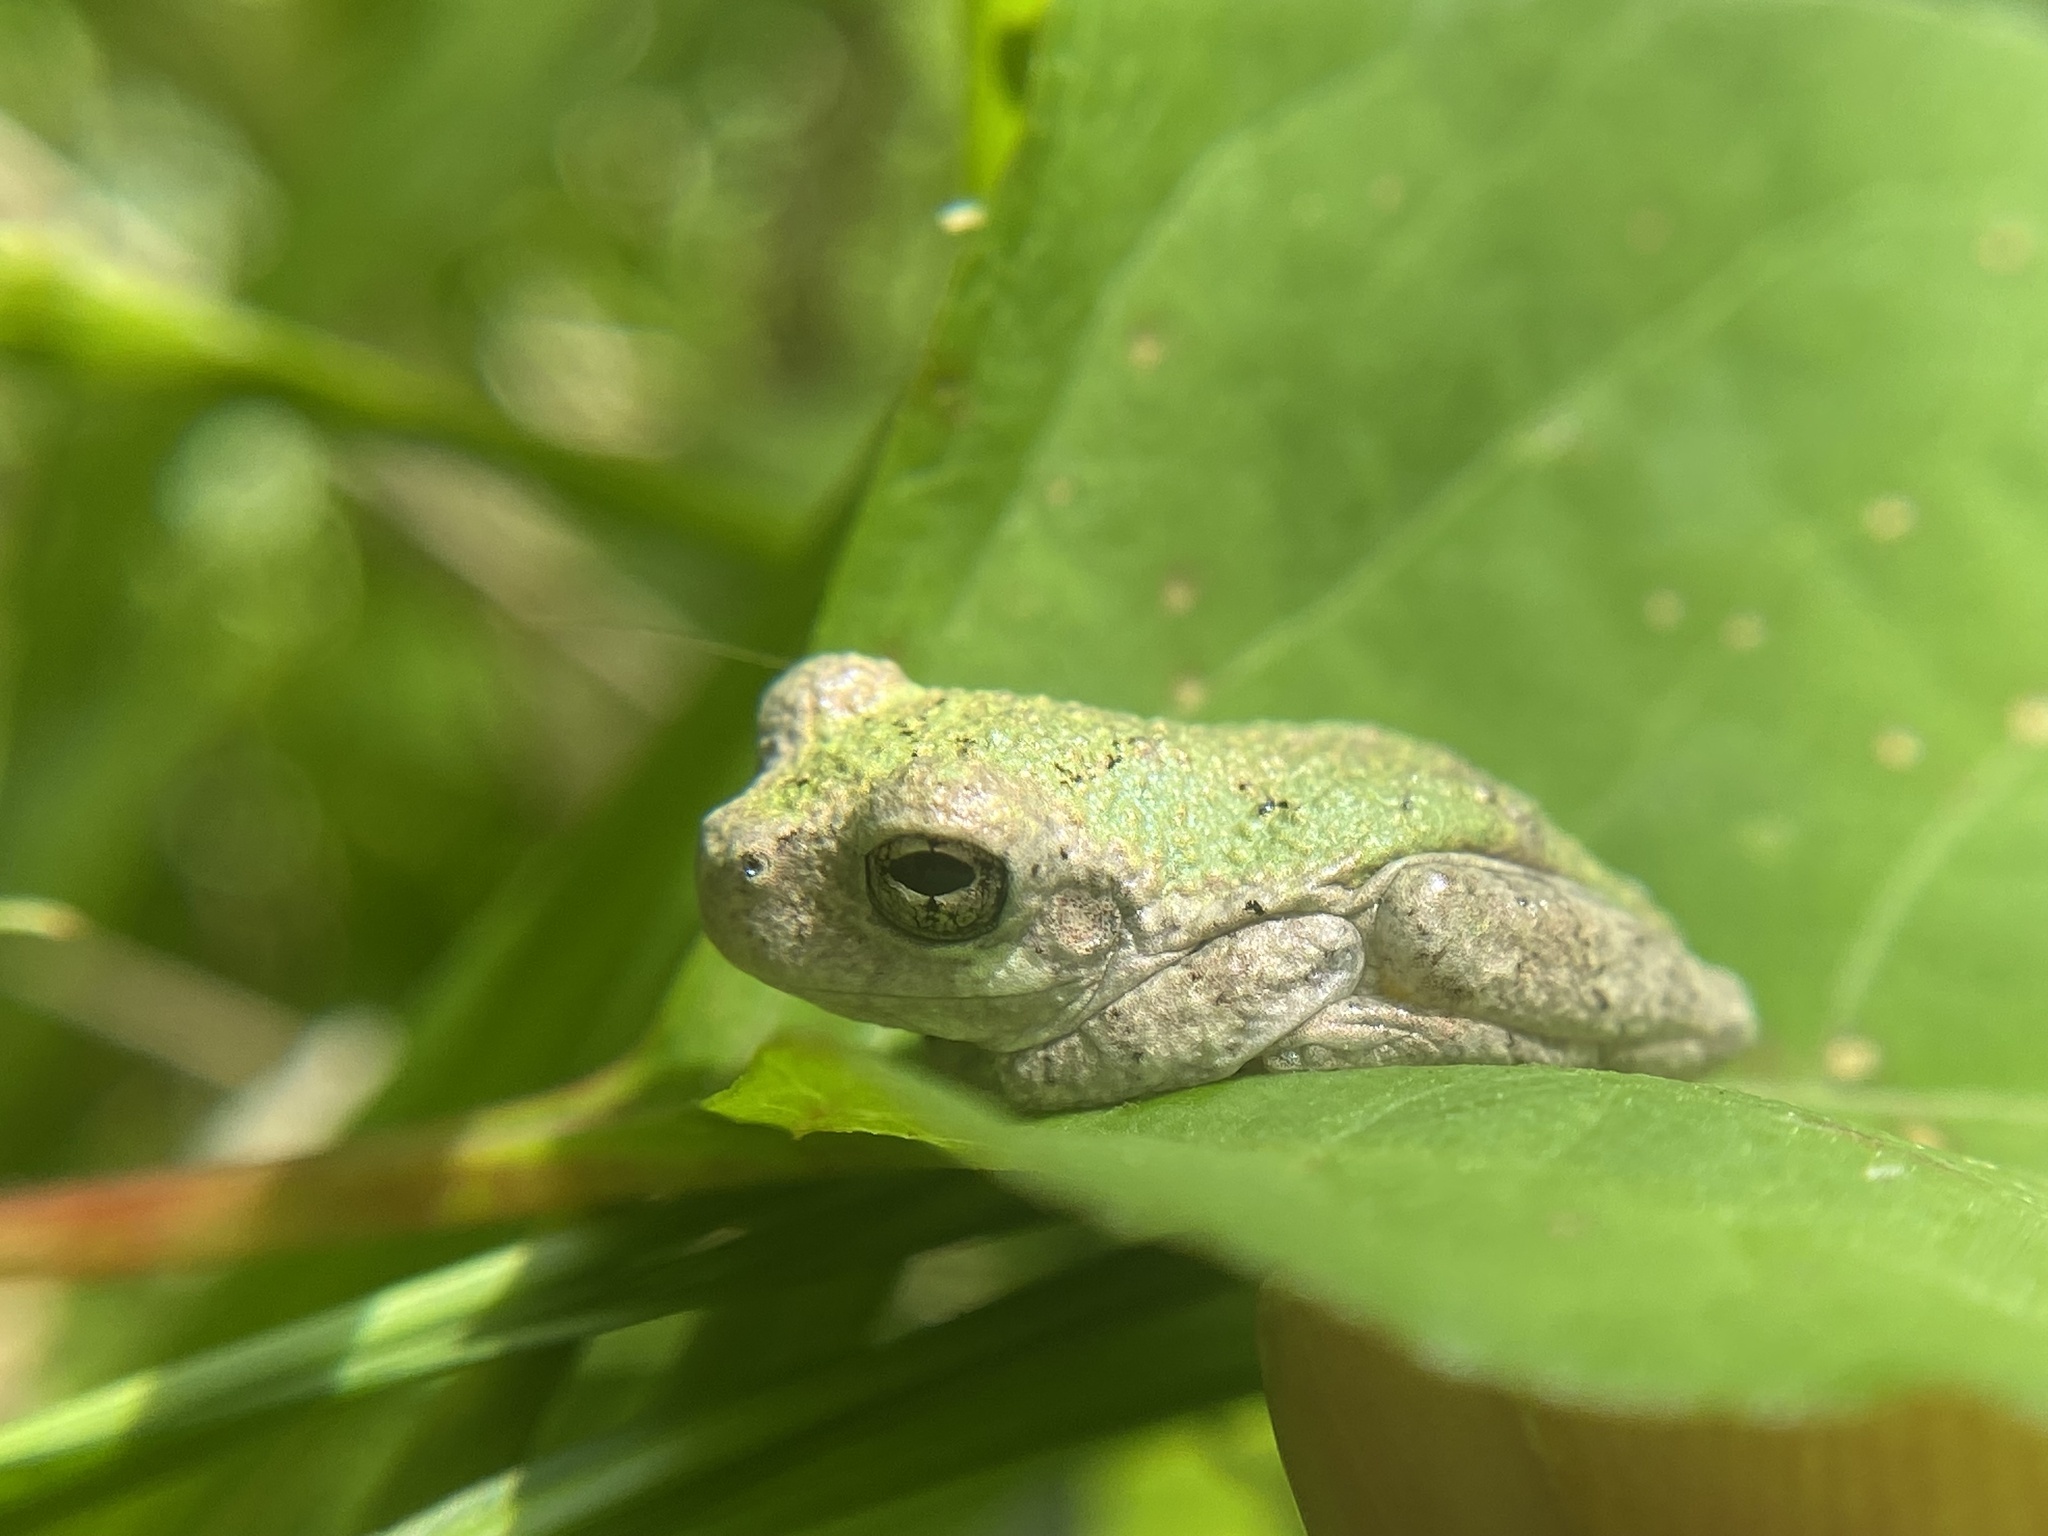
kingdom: Animalia
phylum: Chordata
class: Amphibia
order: Anura
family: Hylidae
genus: Dryophytes
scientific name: Dryophytes chrysoscelis
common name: Cope's gray treefrog
